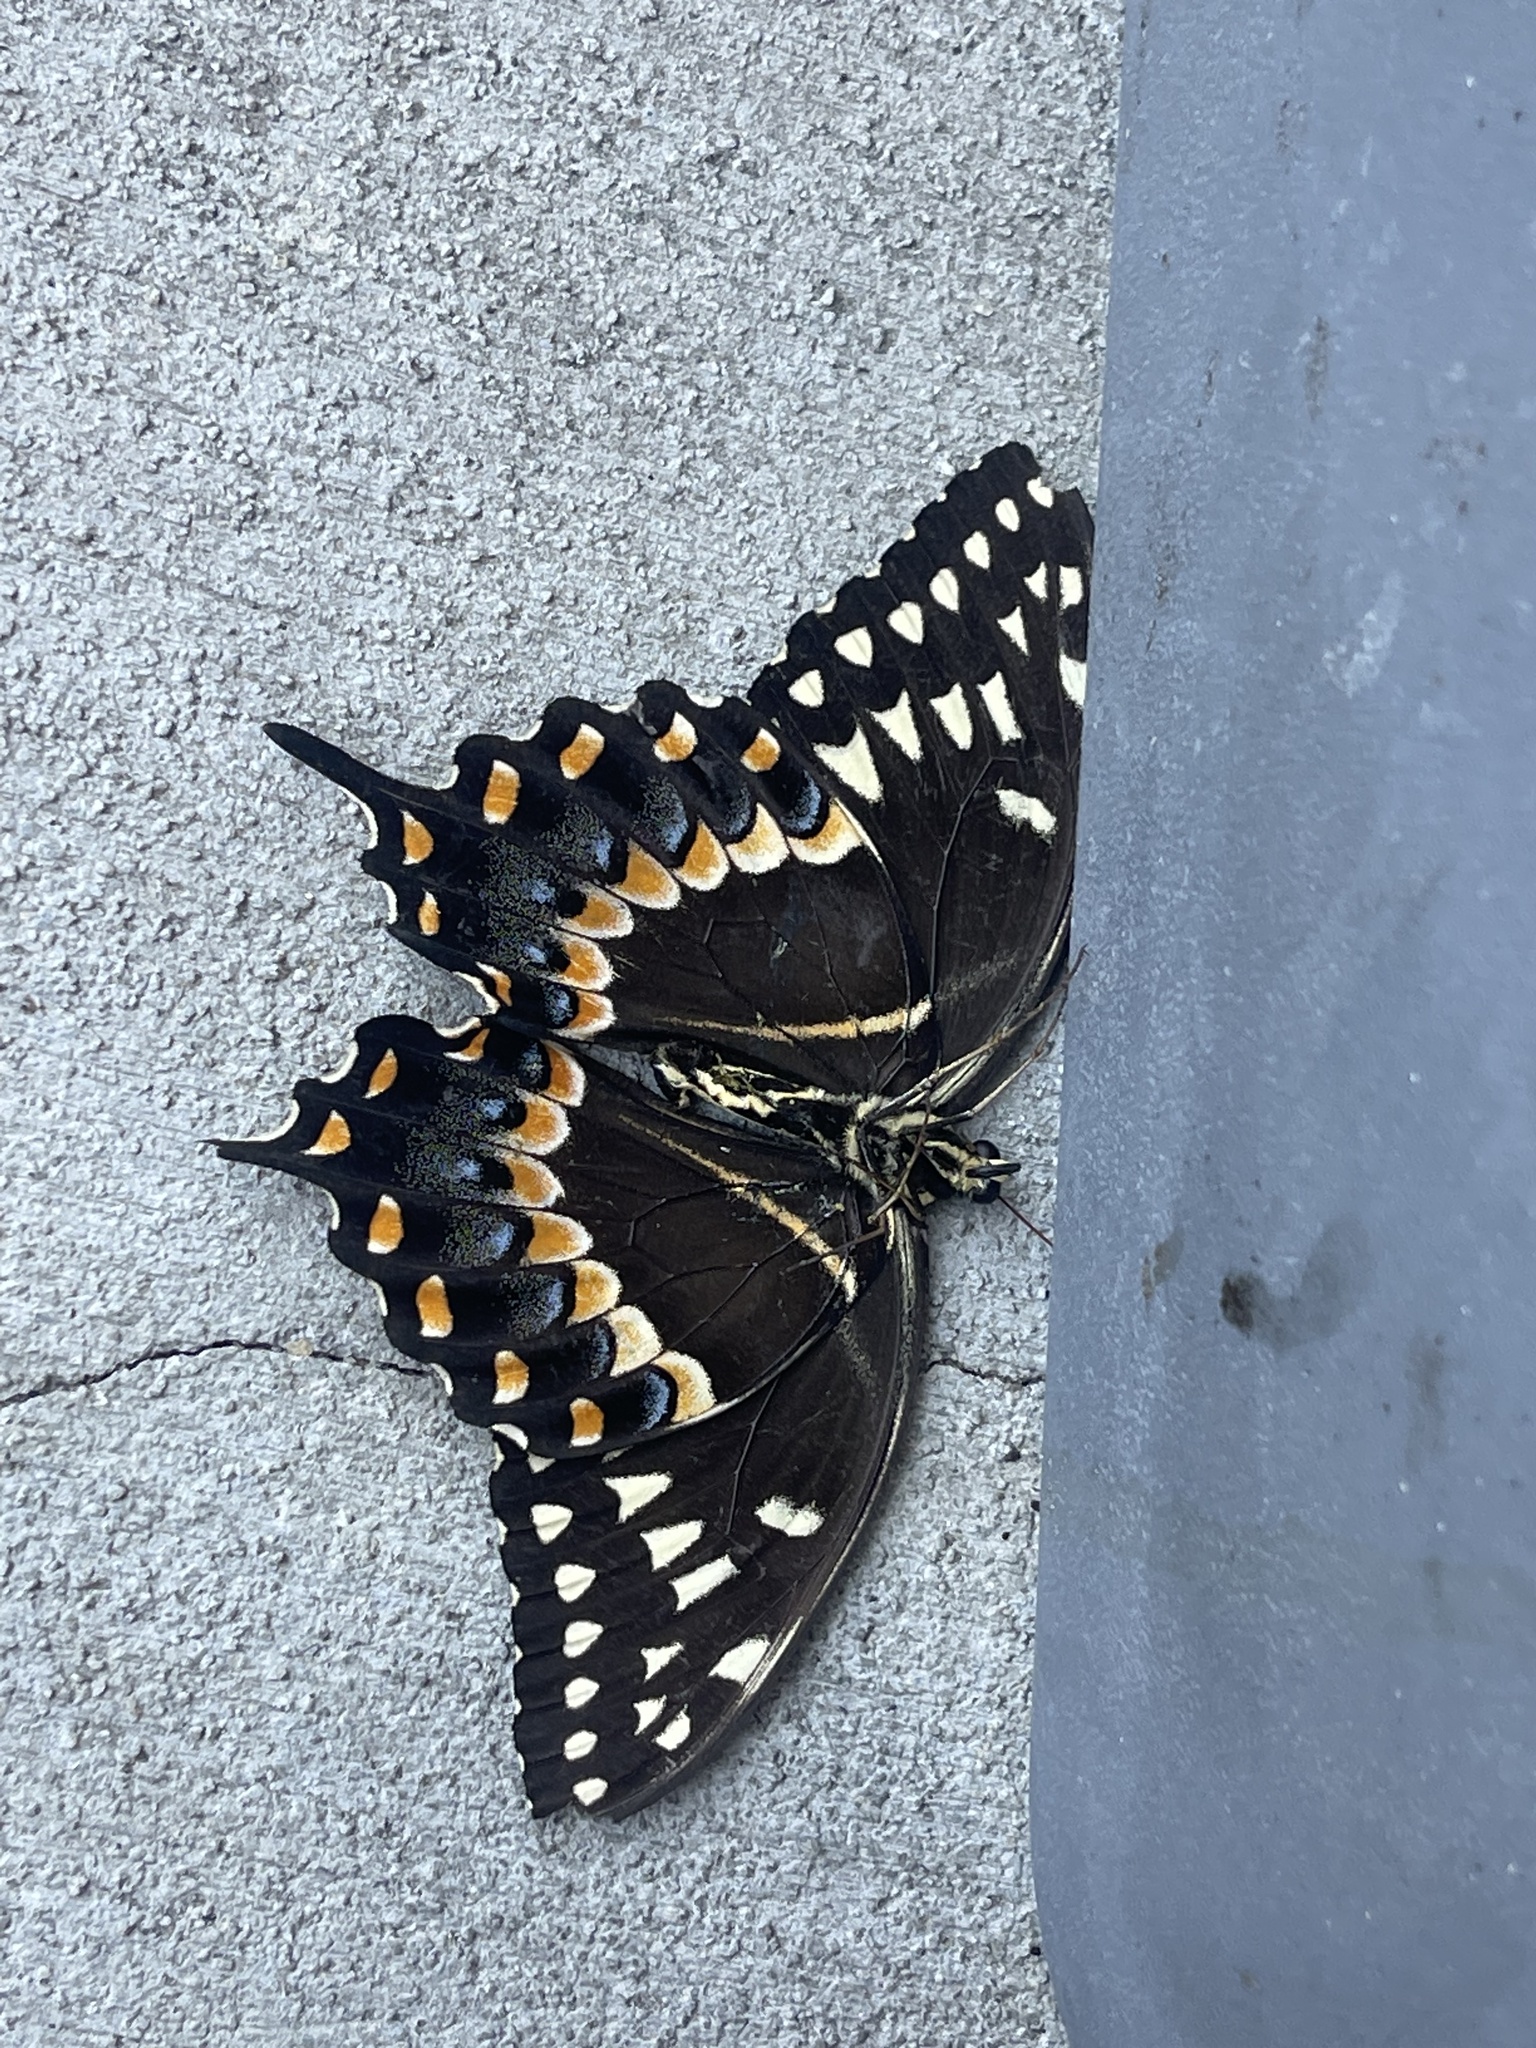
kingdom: Animalia
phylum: Arthropoda
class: Insecta
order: Lepidoptera
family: Papilionidae
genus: Papilio
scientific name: Papilio palamedes
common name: Palamedes swallowtail
